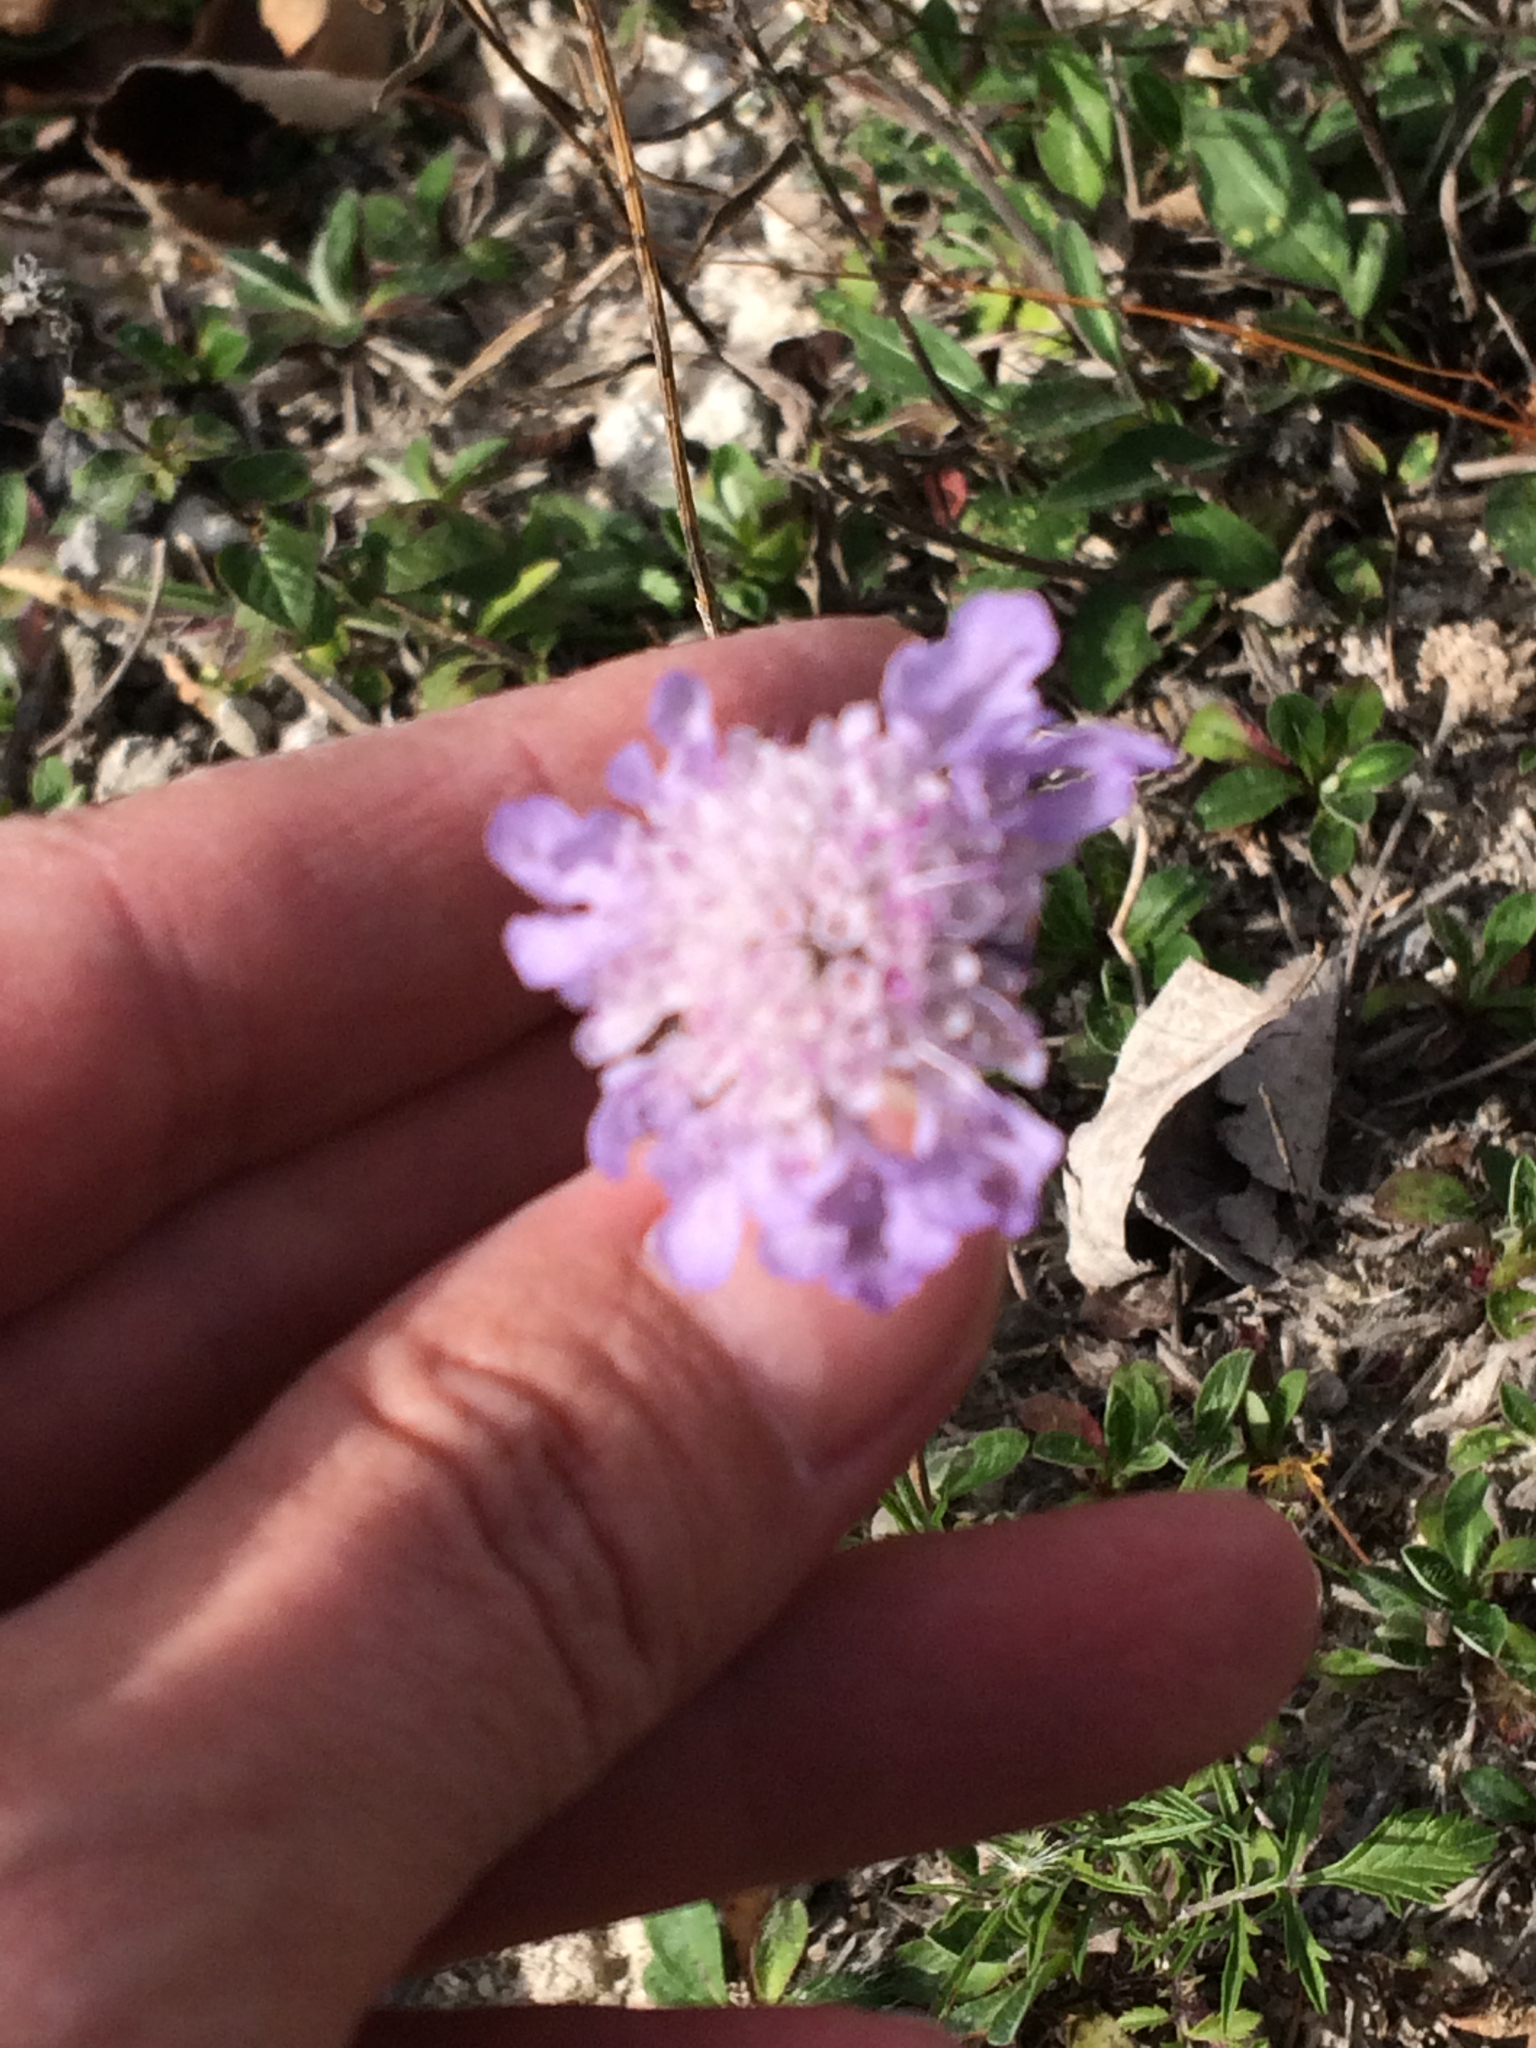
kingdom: Plantae
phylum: Tracheophyta
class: Magnoliopsida
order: Dipsacales
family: Caprifoliaceae
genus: Scabiosa
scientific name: Scabiosa columbaria
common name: Small scabious
